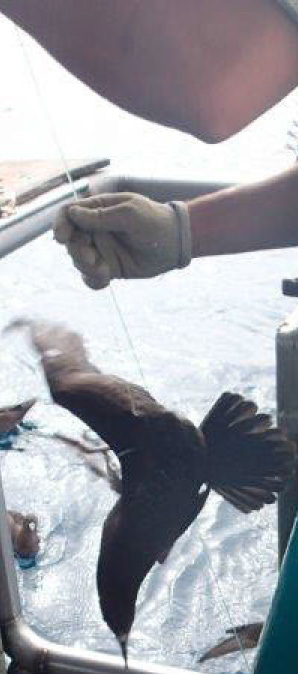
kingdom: Animalia
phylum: Chordata
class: Aves
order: Procellariiformes
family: Procellariidae
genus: Puffinus
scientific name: Puffinus carneipes
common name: Flesh-footed shearwater
